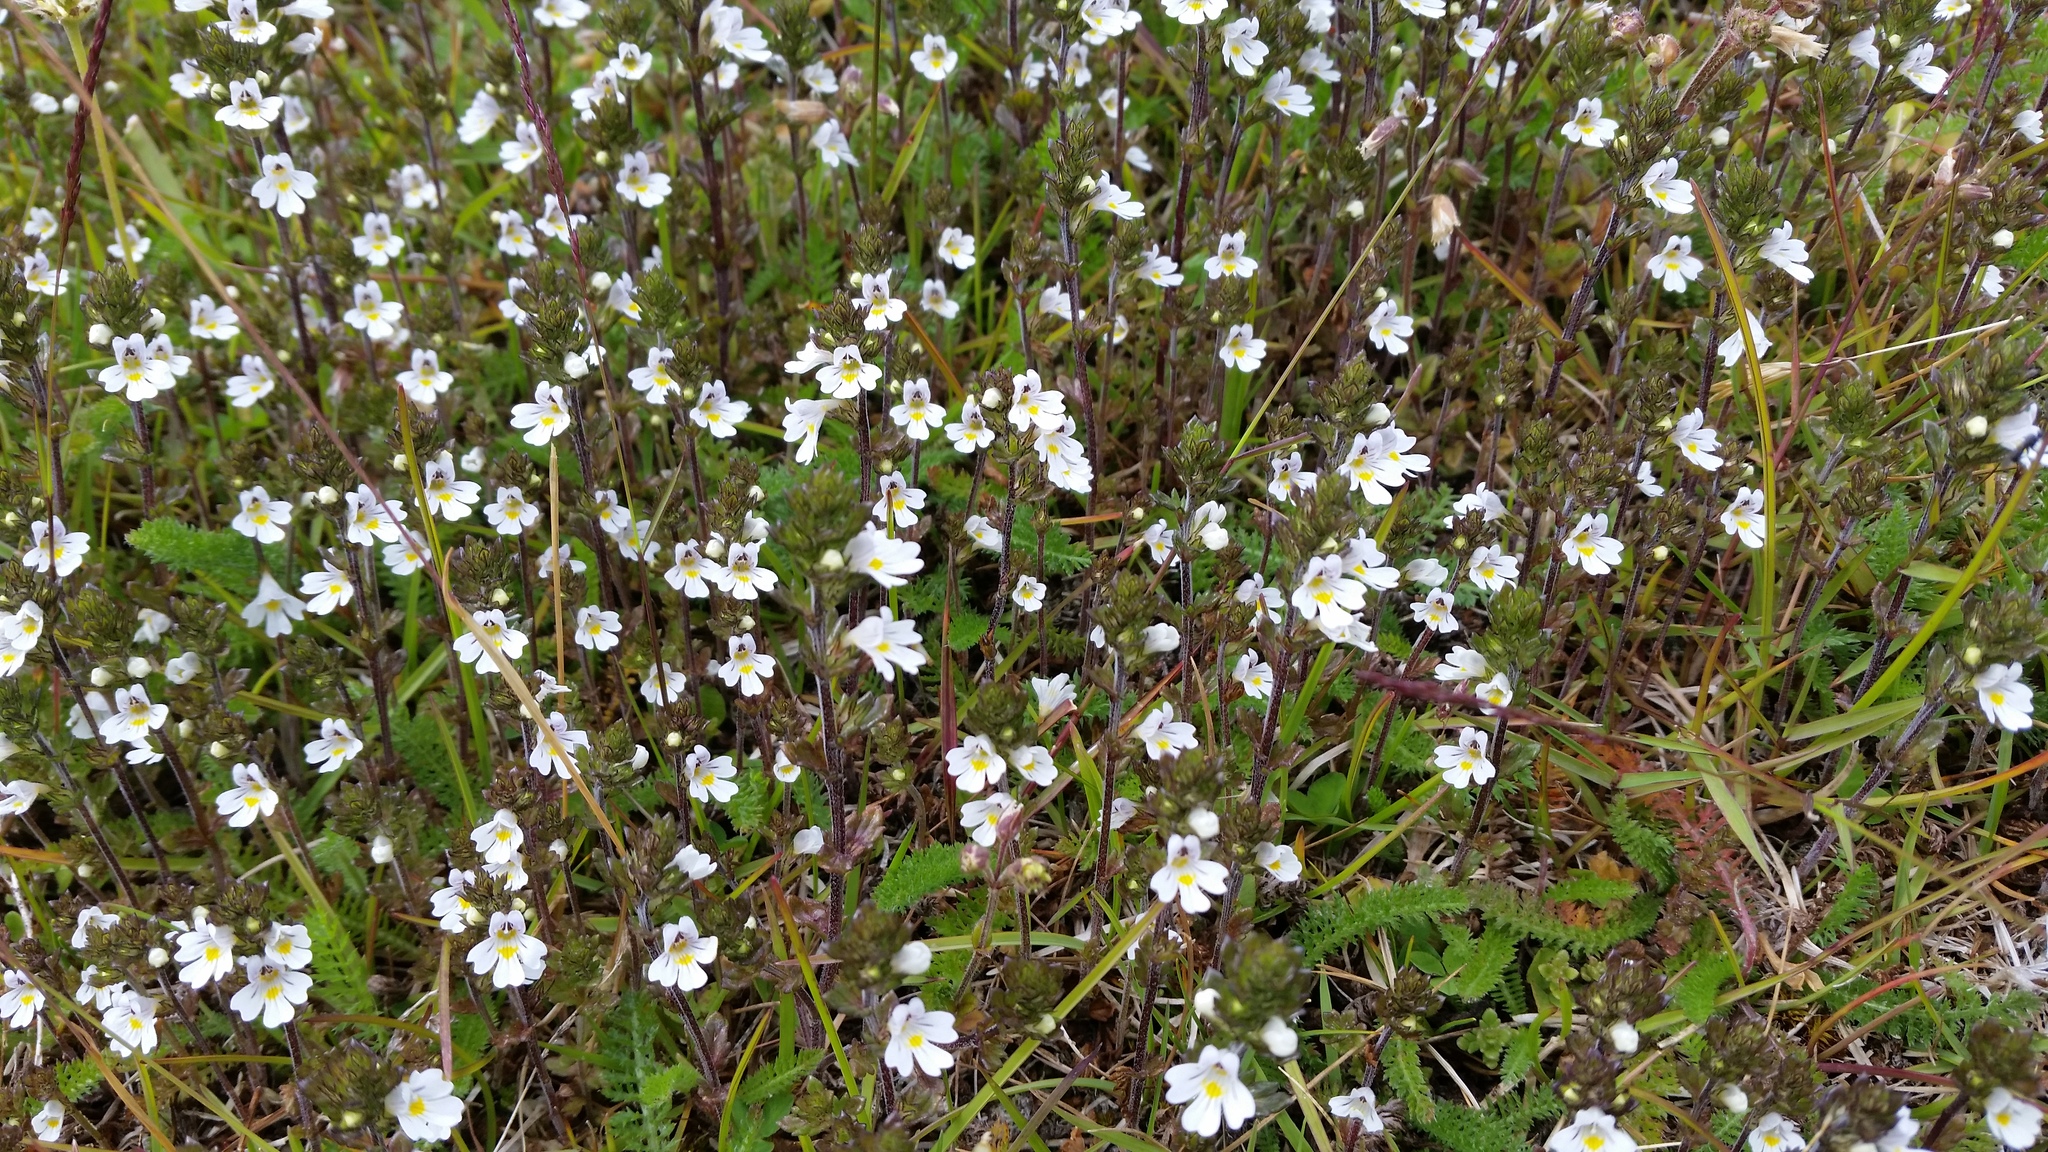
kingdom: Plantae
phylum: Tracheophyta
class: Magnoliopsida
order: Lamiales
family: Orobanchaceae
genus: Euphrasia
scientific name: Euphrasia officinalis
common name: Eyebright
